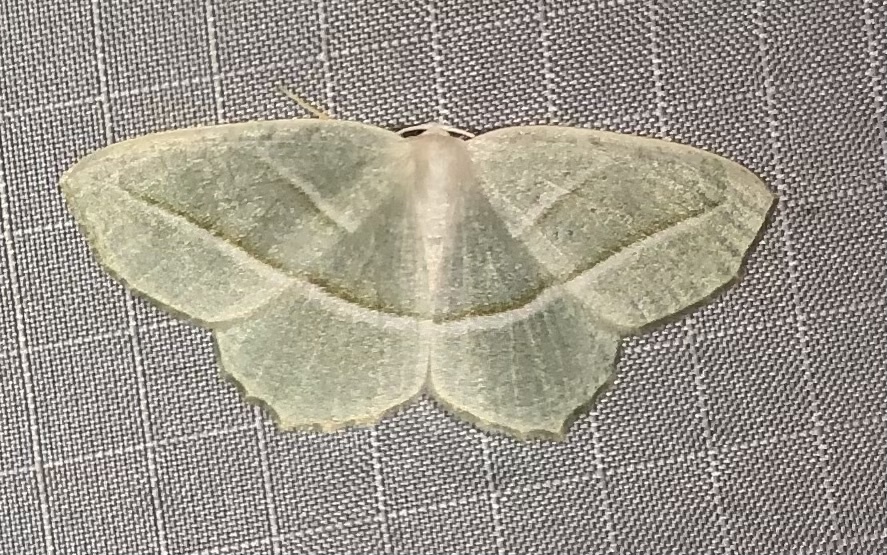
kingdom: Animalia
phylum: Arthropoda
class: Insecta
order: Lepidoptera
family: Geometridae
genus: Campaea
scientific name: Campaea perlata
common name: Fringed looper
